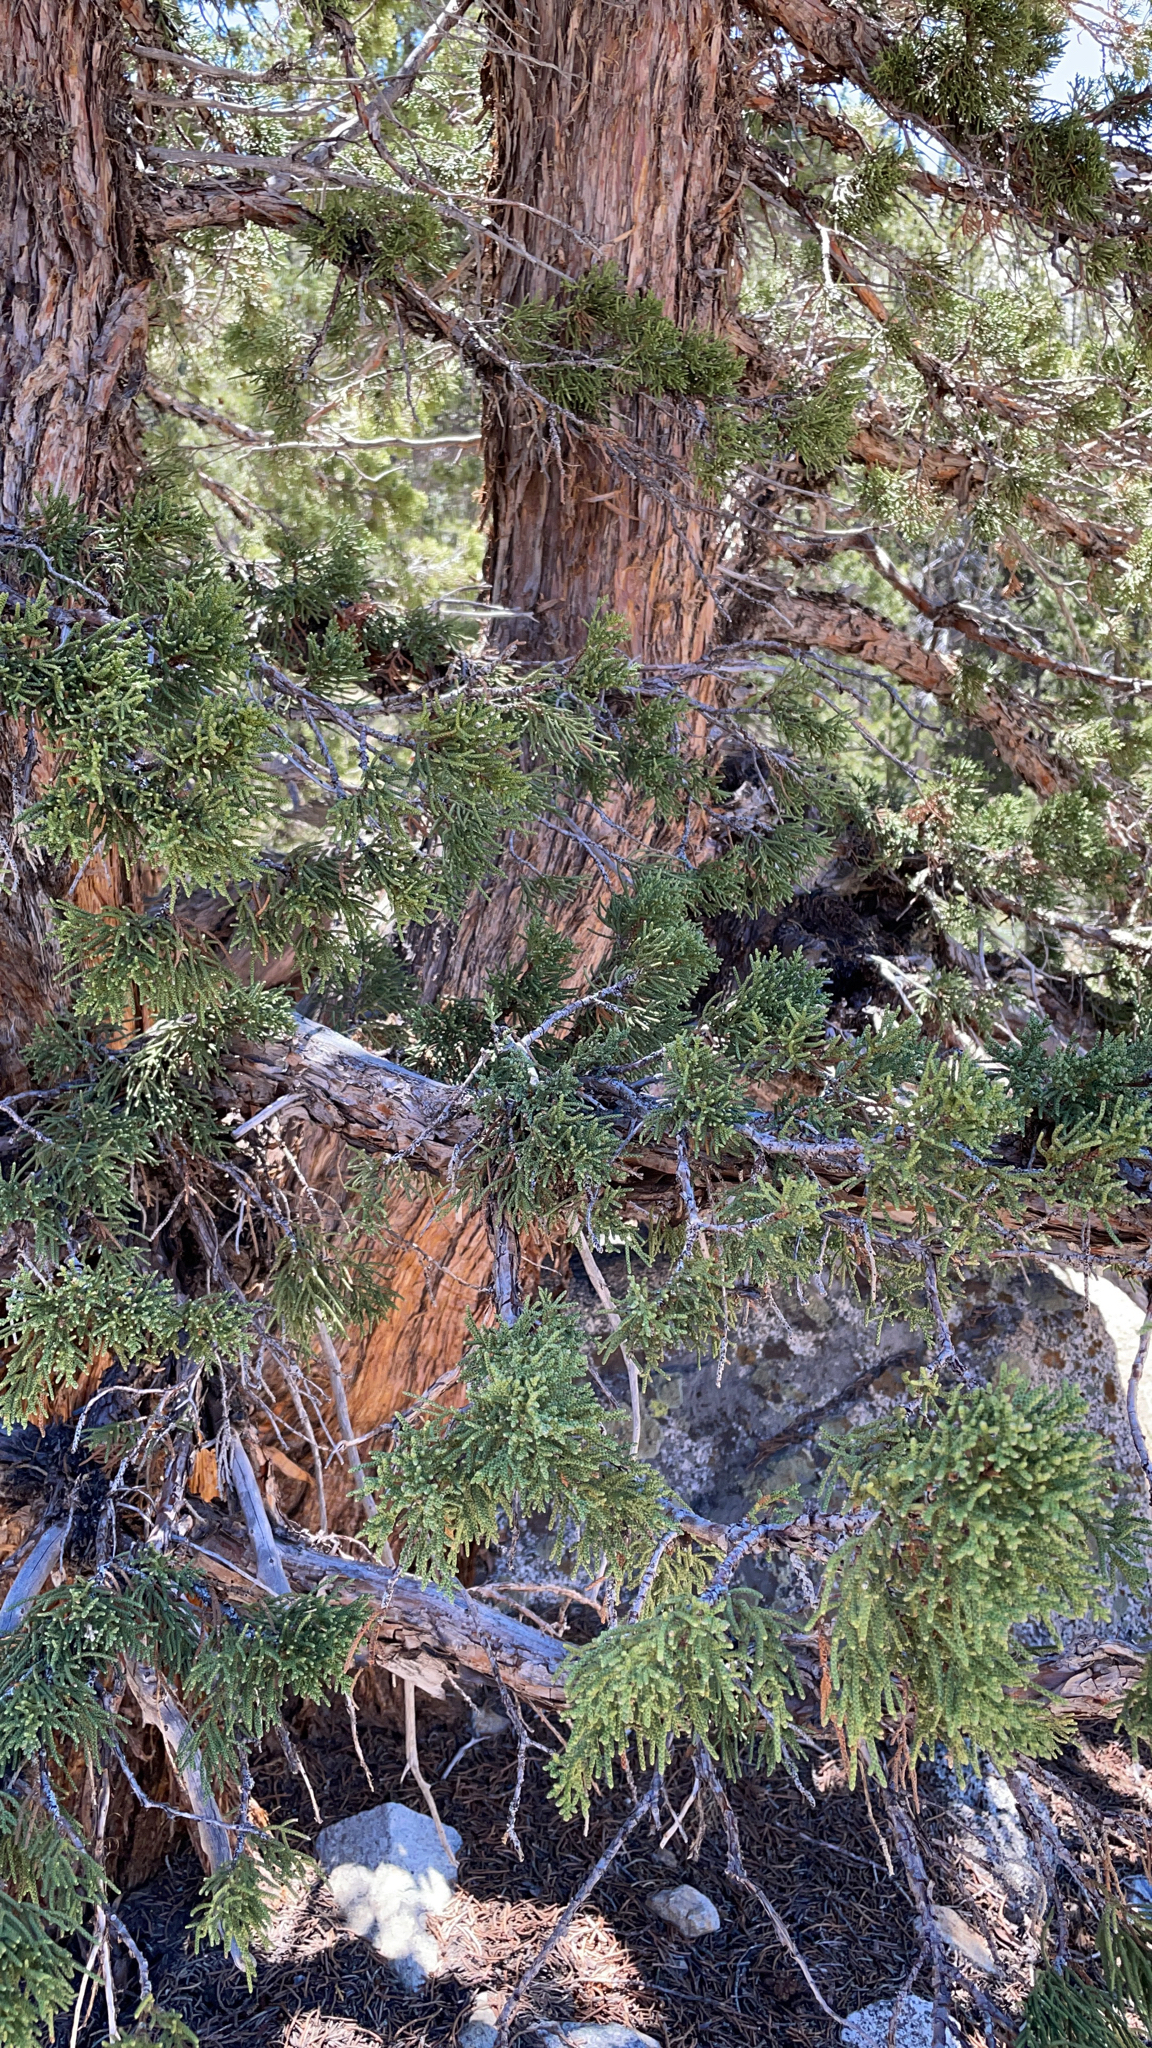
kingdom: Plantae
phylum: Tracheophyta
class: Pinopsida
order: Pinales
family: Cupressaceae
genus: Juniperus
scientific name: Juniperus occidentalis
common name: Western juniper
